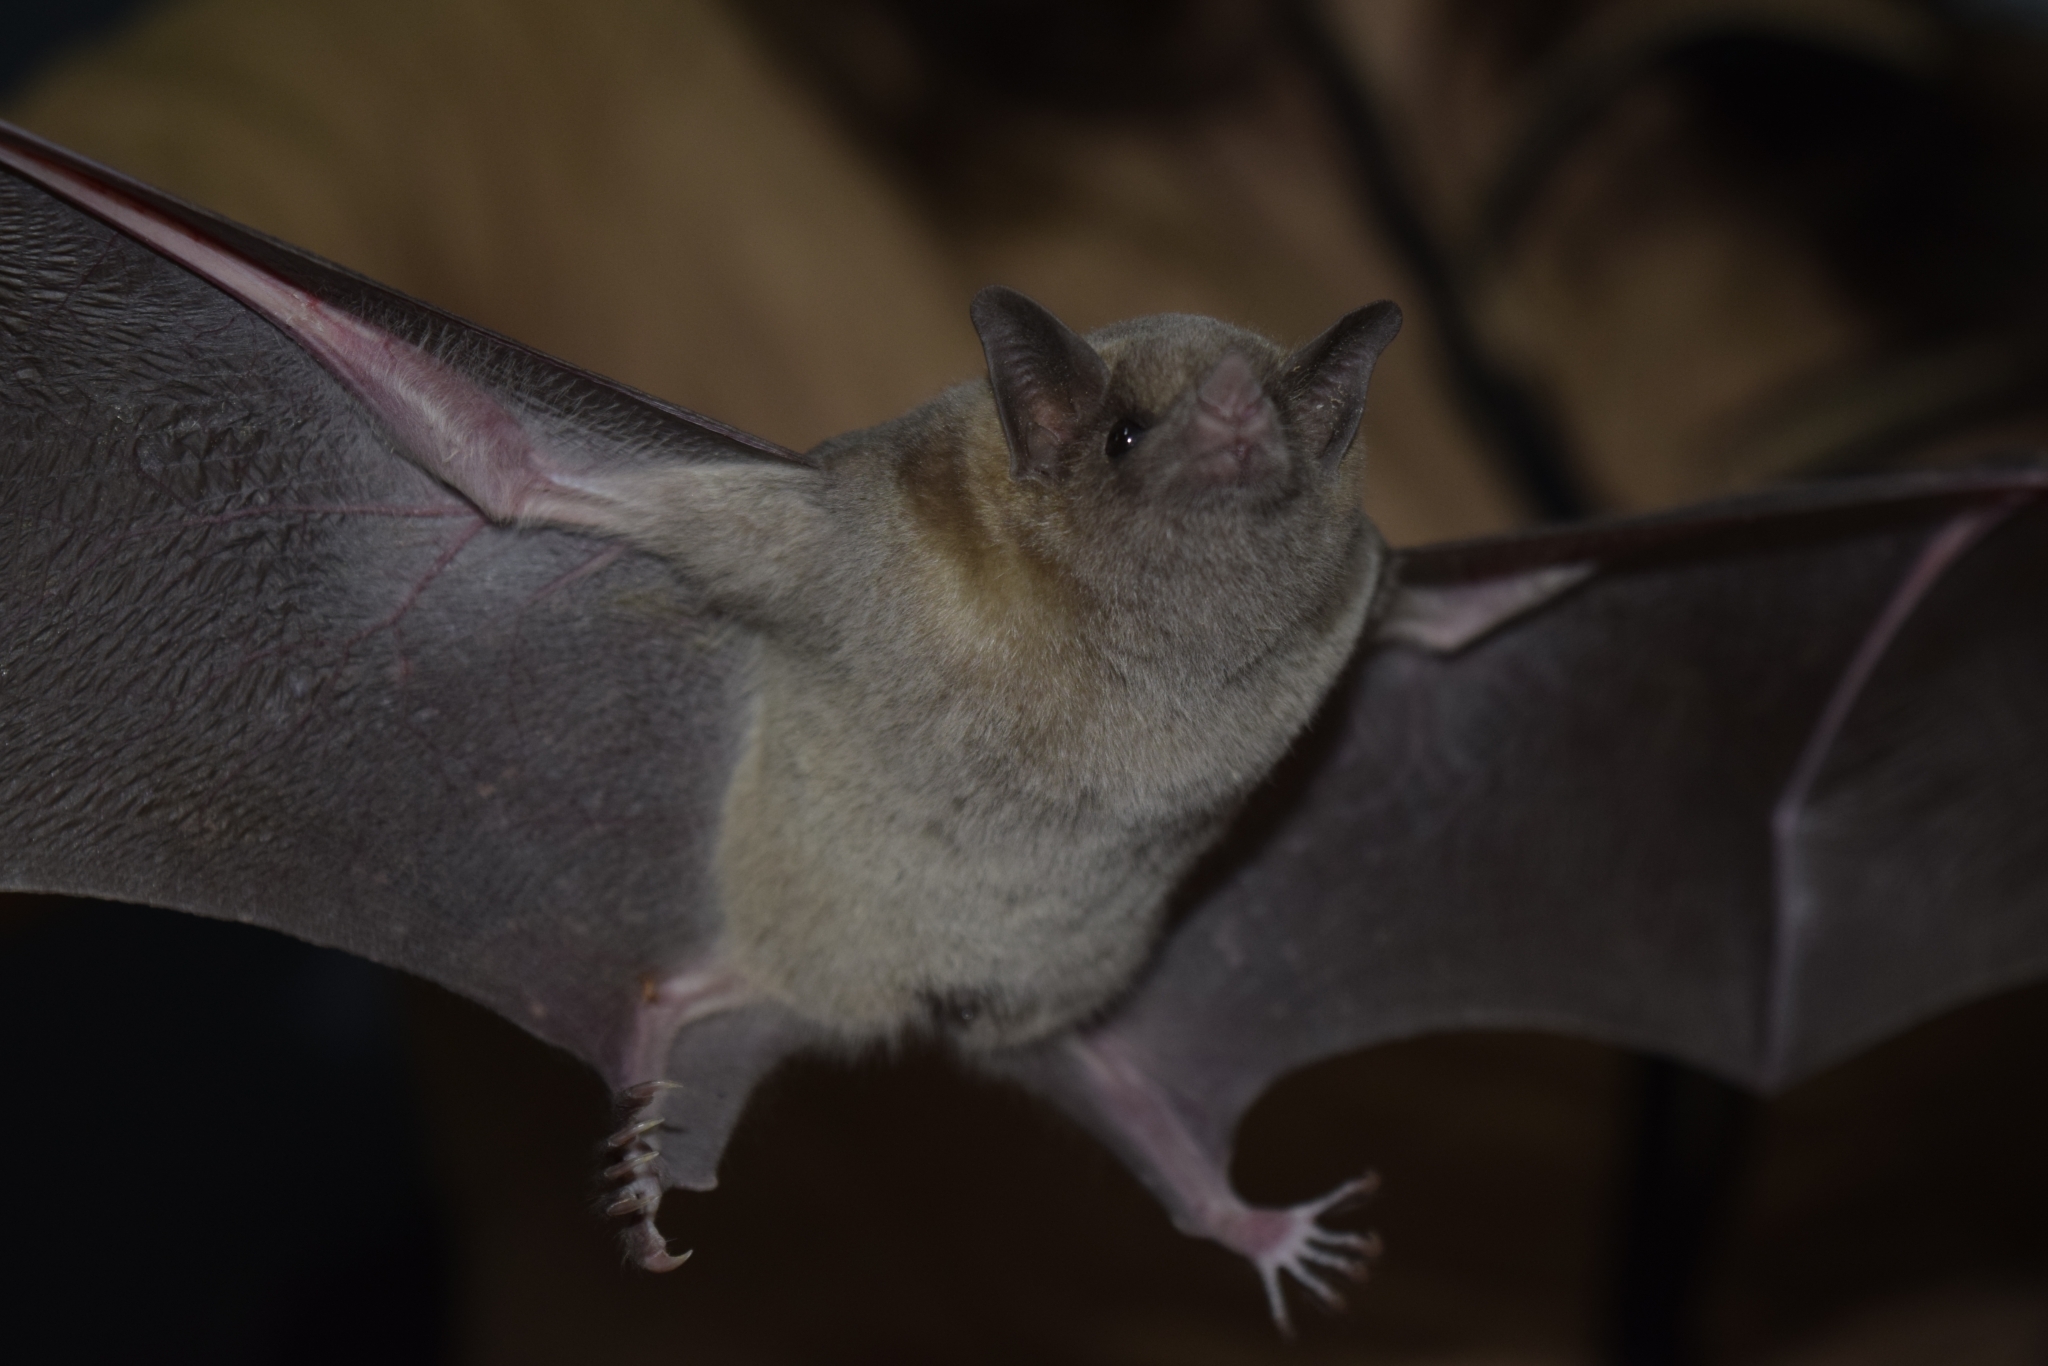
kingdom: Animalia
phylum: Chordata
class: Mammalia
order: Chiroptera
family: Phyllostomidae
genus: Leptonycteris
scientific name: Leptonycteris nivalis
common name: Greater long-nosed bat
